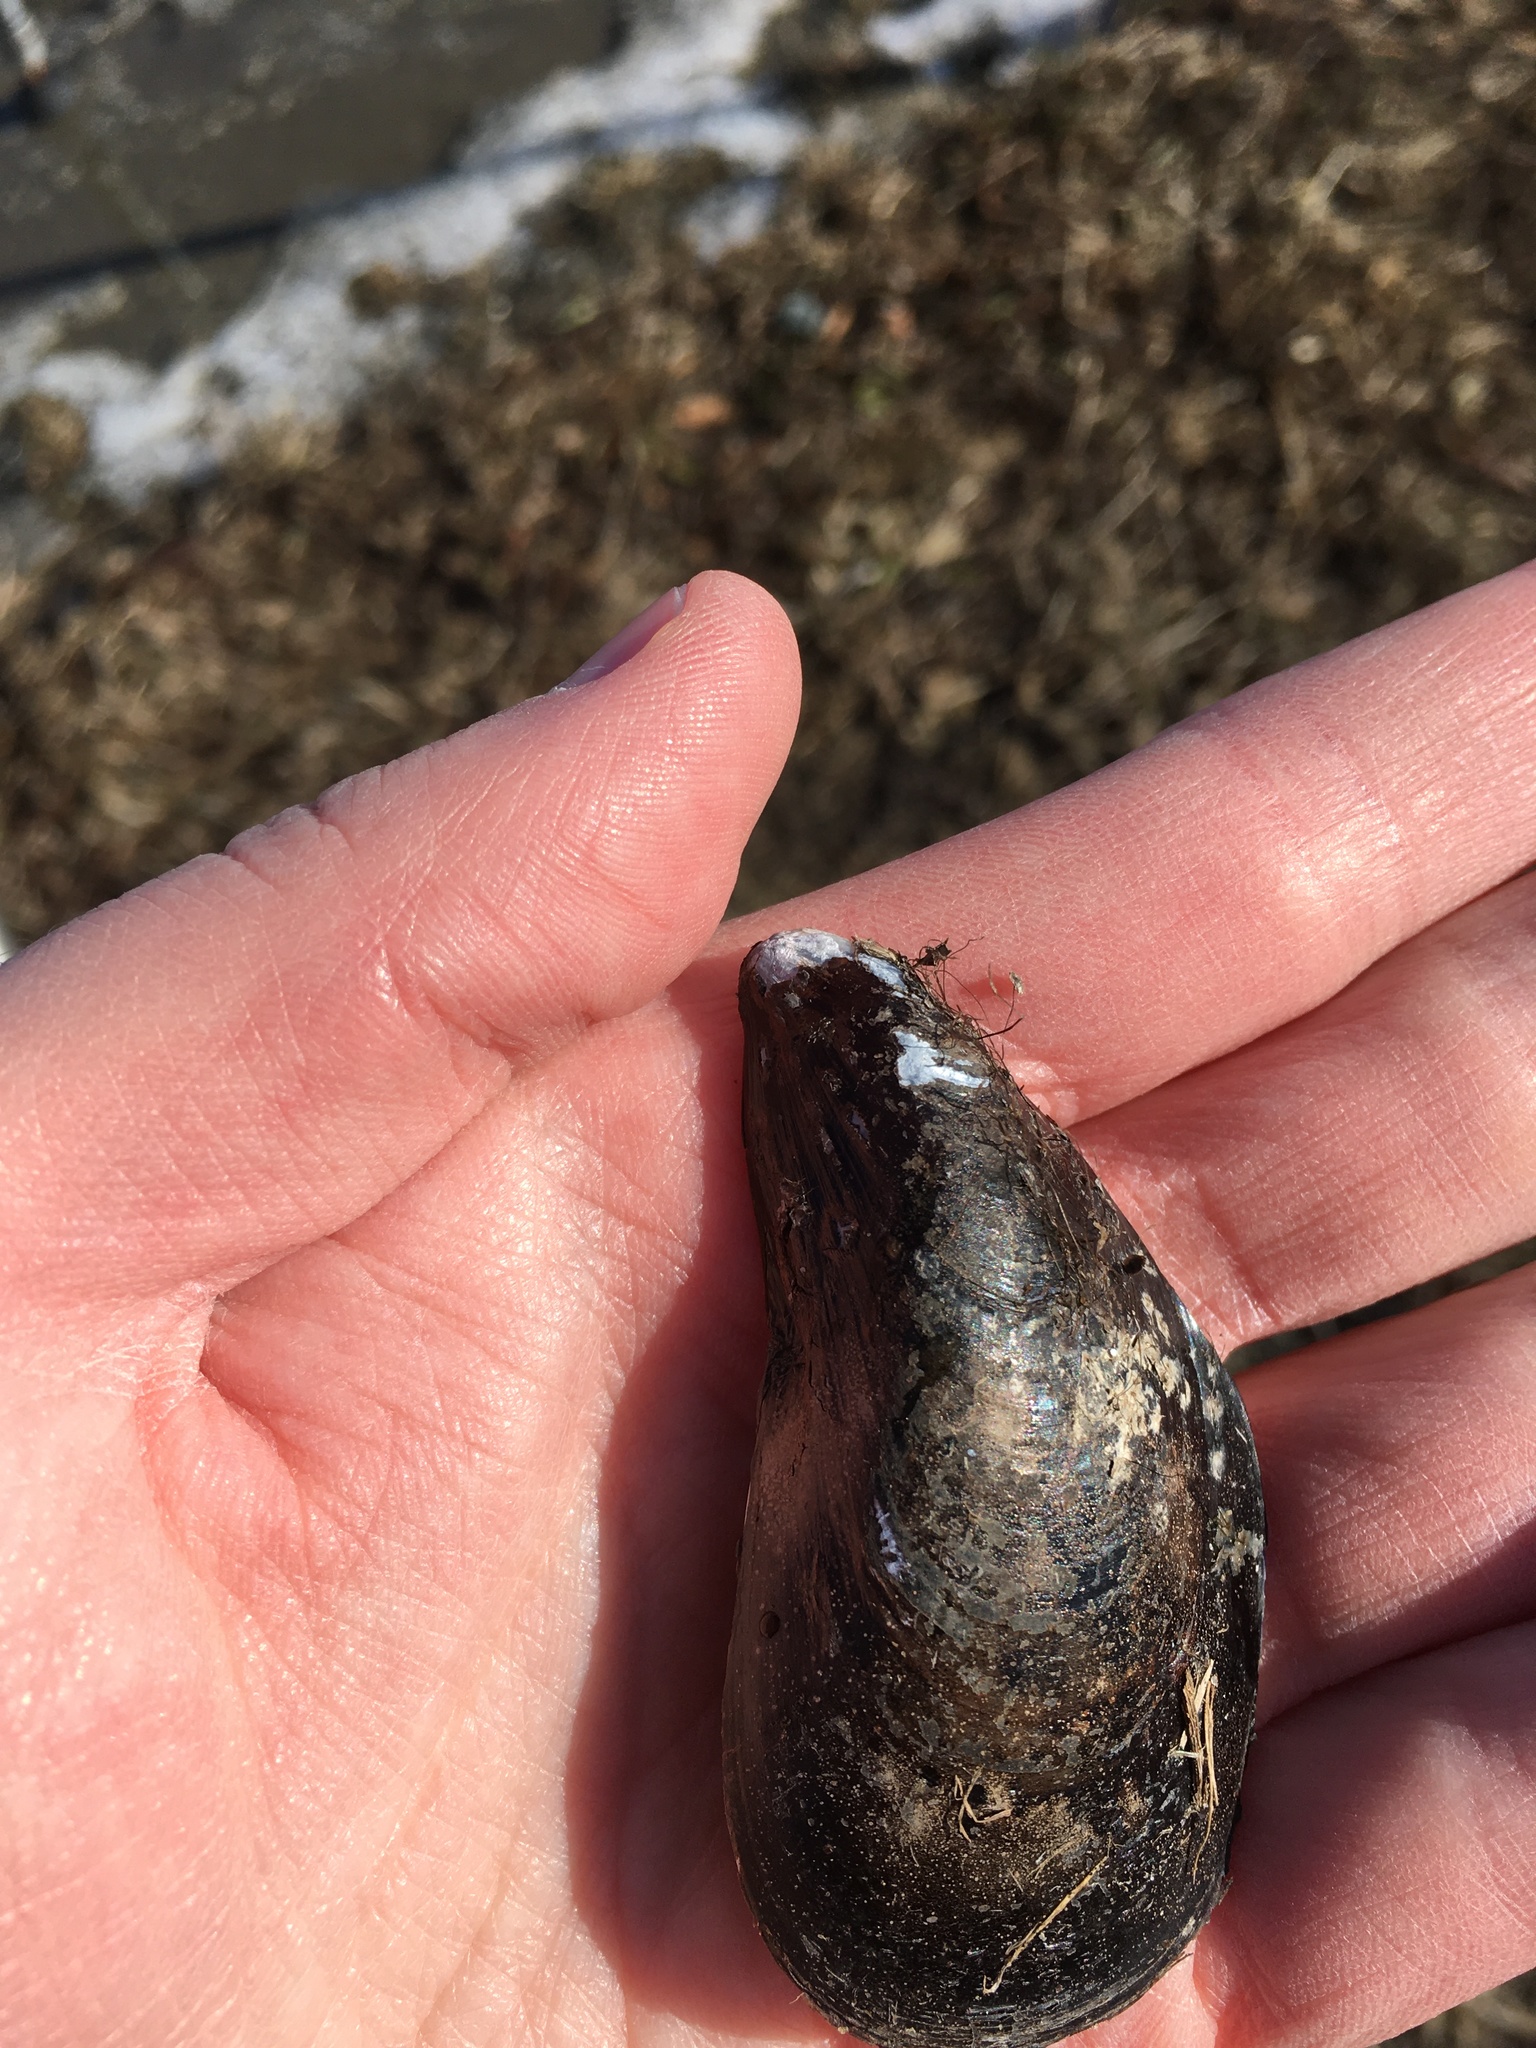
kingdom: Animalia
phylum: Mollusca
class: Bivalvia
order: Mytilida
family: Mytilidae
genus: Mytilus
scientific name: Mytilus edulis
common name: Blue mussel
